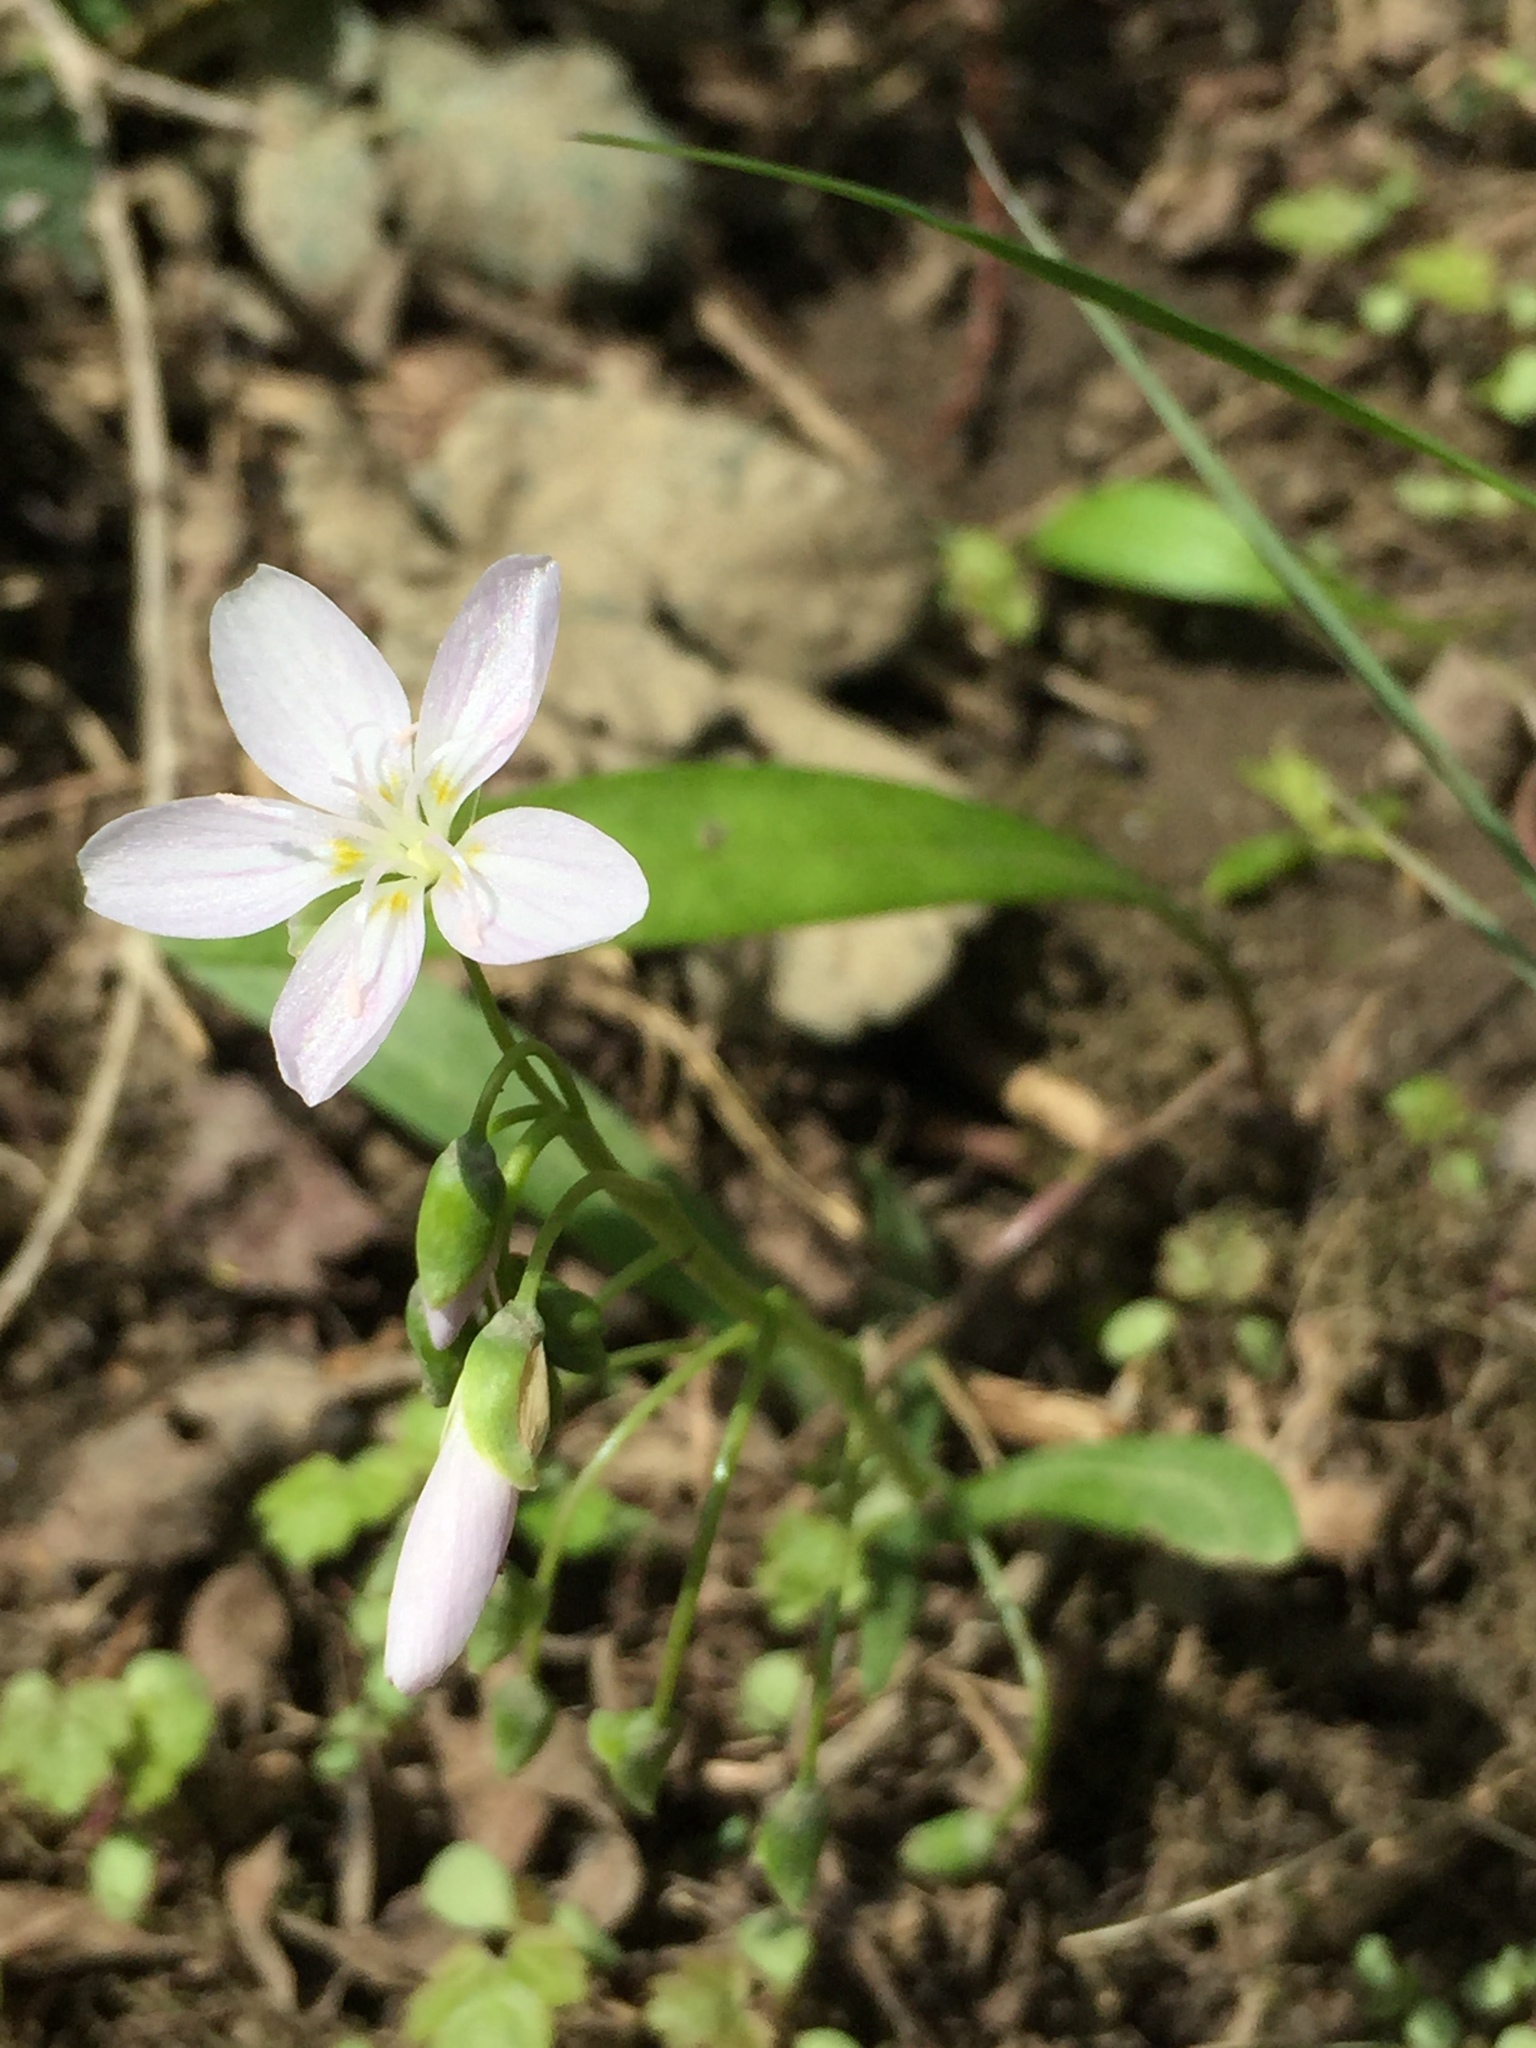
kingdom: Plantae
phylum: Tracheophyta
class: Magnoliopsida
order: Caryophyllales
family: Montiaceae
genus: Claytonia
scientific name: Claytonia virginica
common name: Virginia springbeauty
